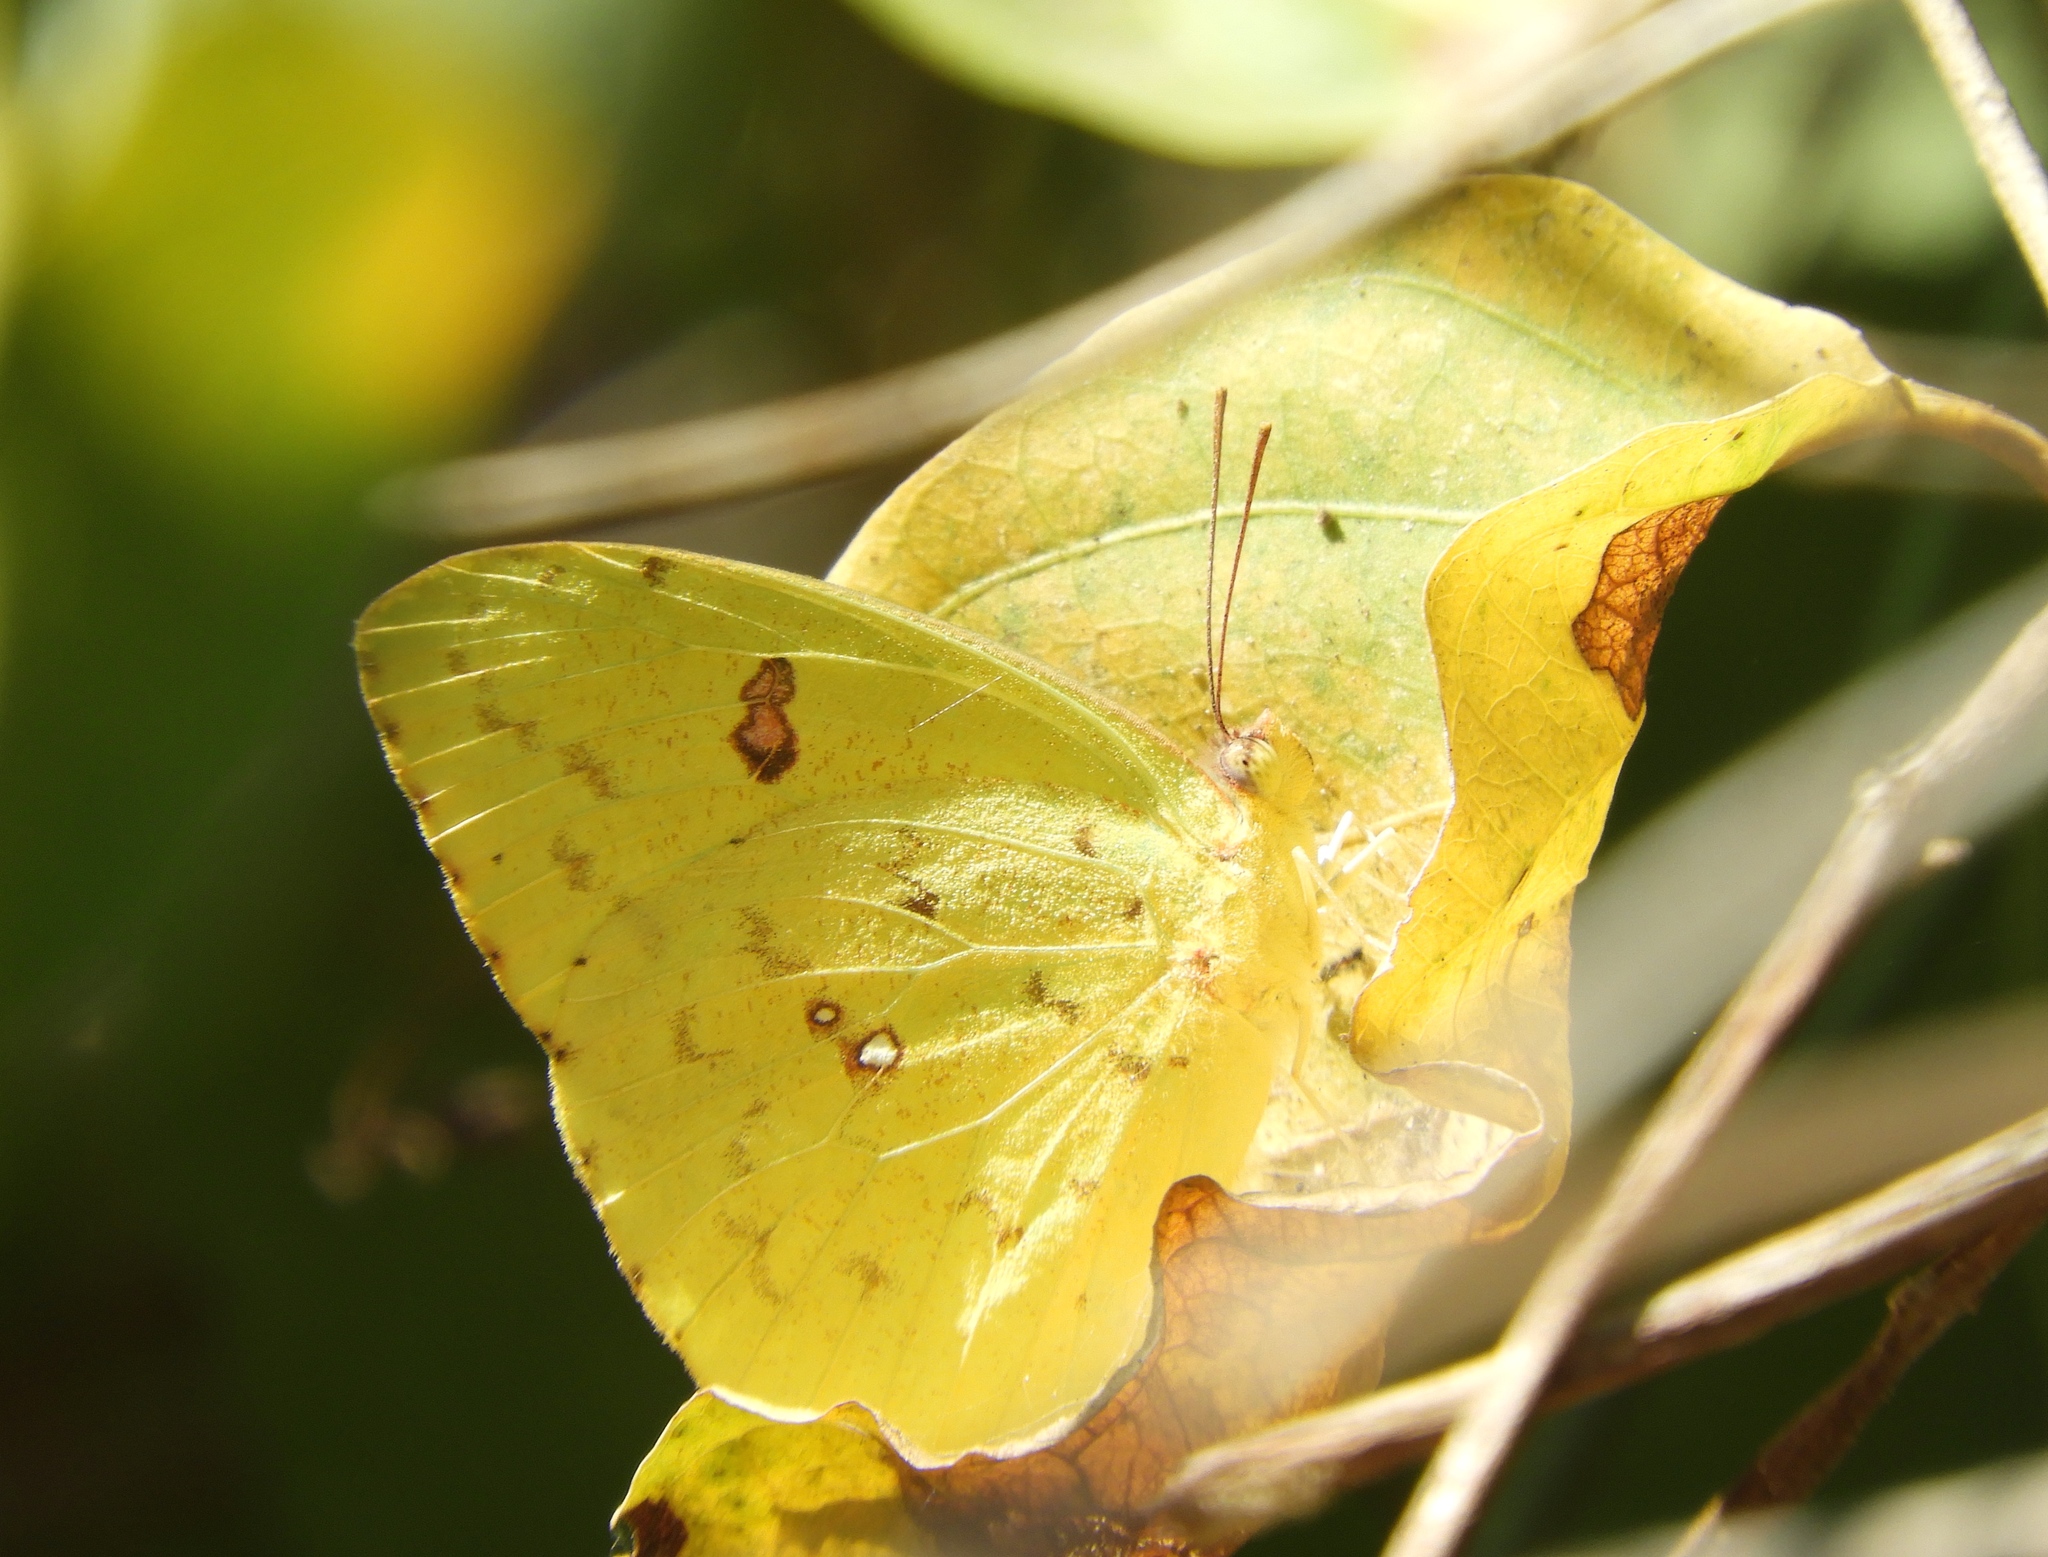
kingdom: Animalia
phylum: Arthropoda
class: Insecta
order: Lepidoptera
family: Pieridae
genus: Phoebis
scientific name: Phoebis
